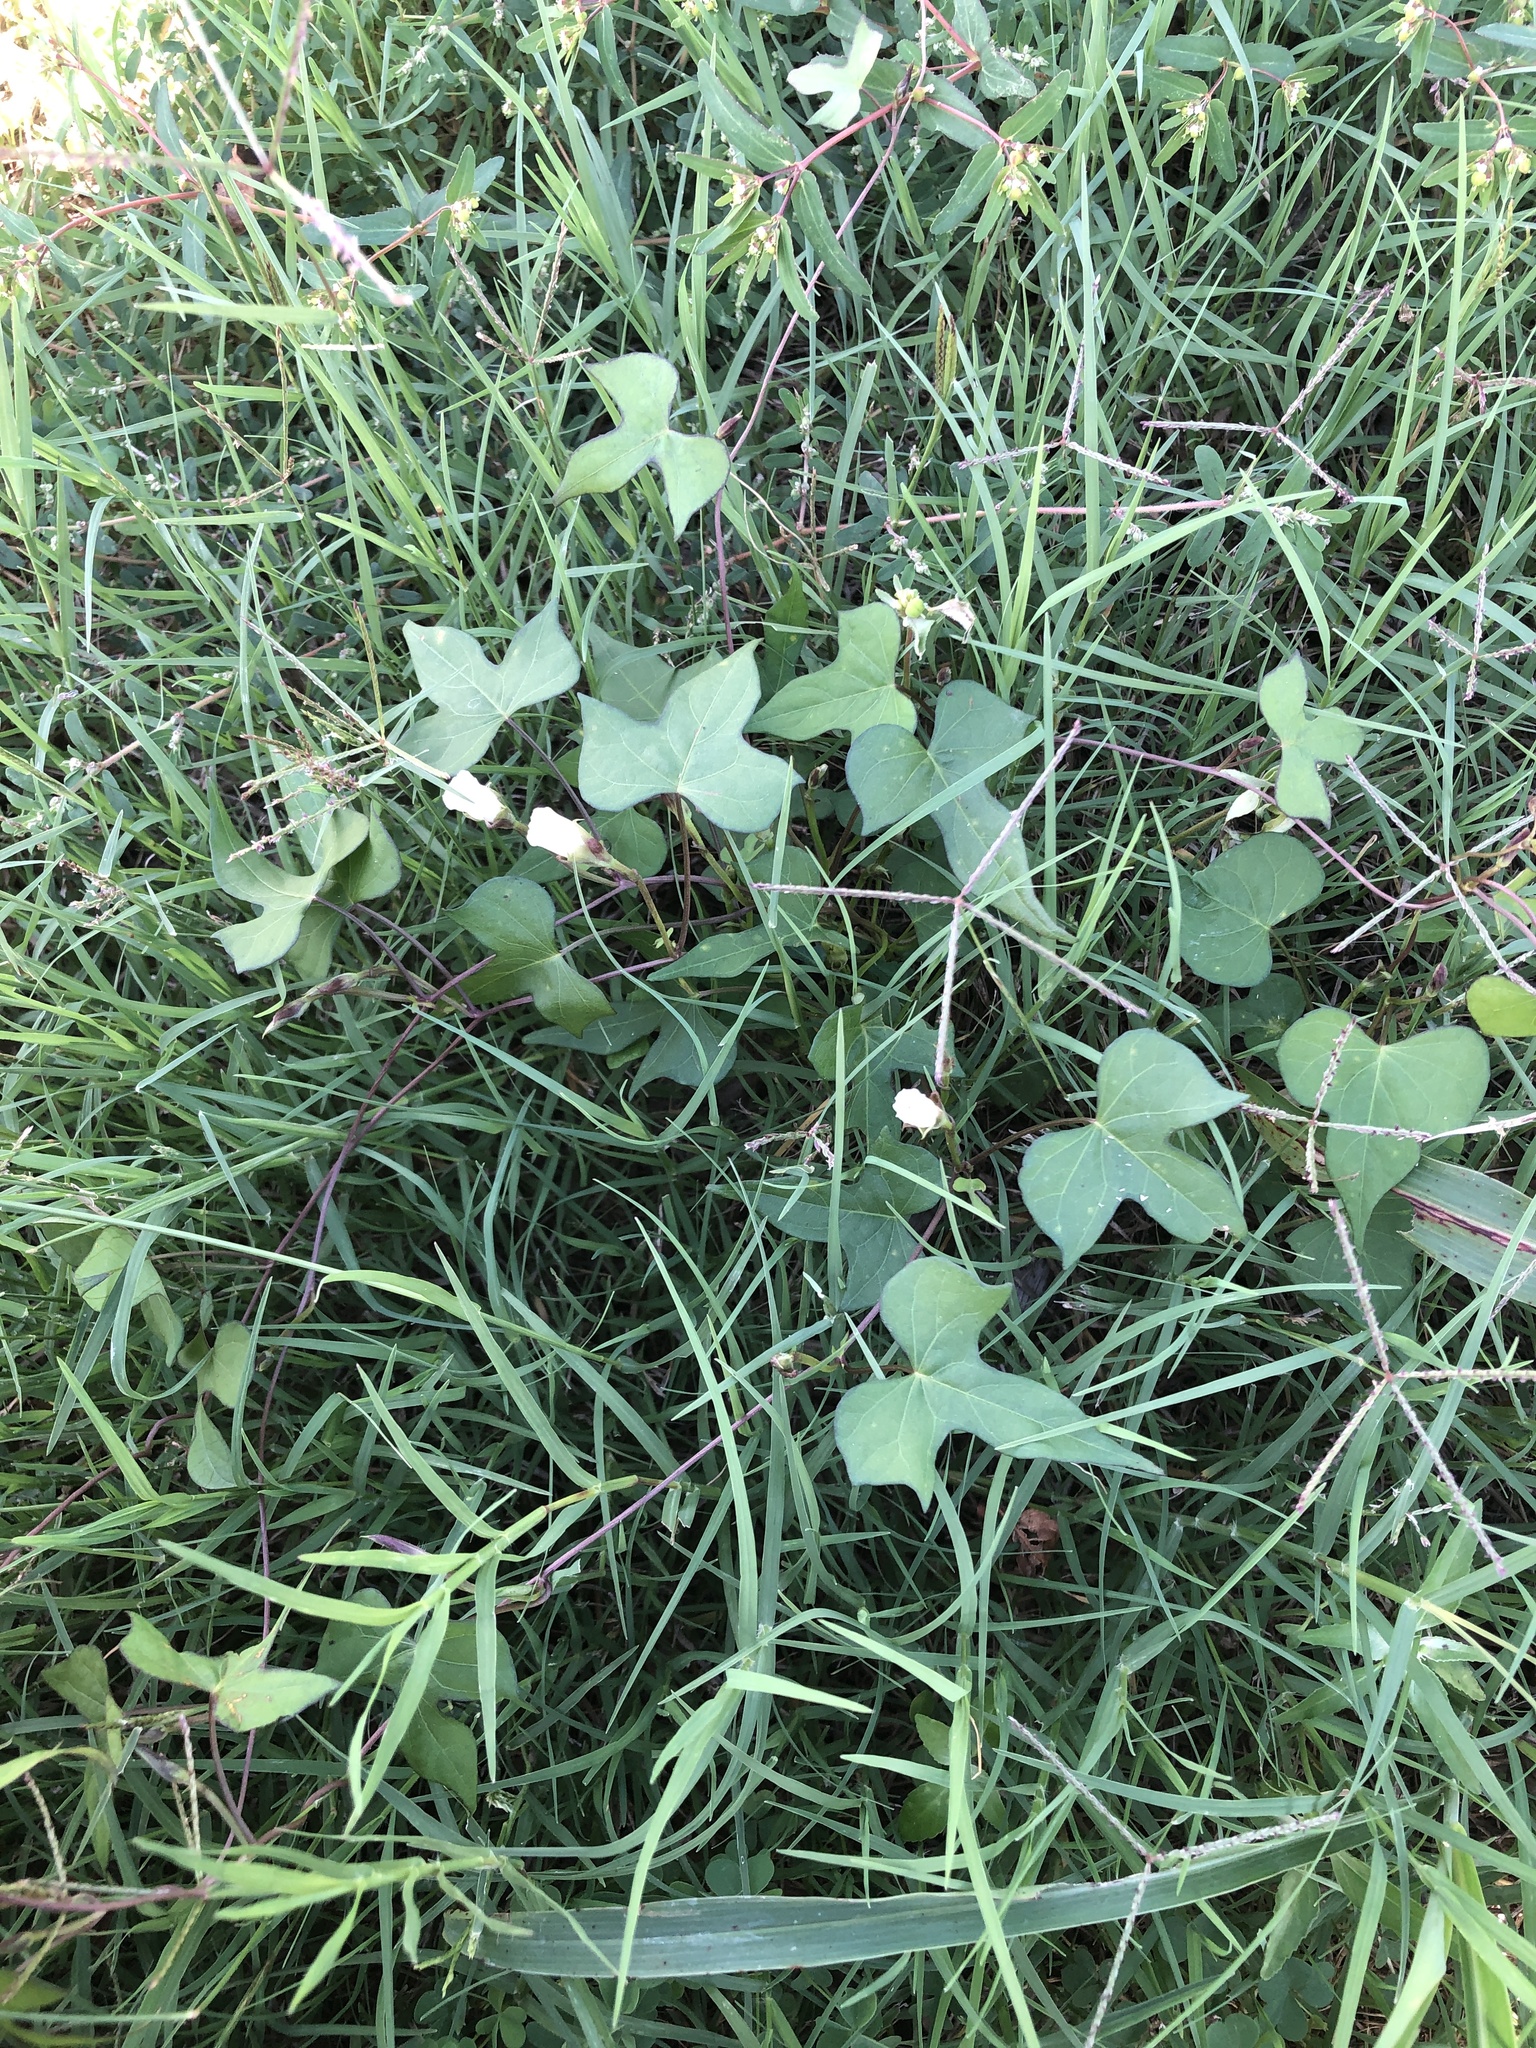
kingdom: Plantae
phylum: Tracheophyta
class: Magnoliopsida
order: Solanales
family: Convolvulaceae
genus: Ipomoea
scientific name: Ipomoea lacunosa
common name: White morning-glory
